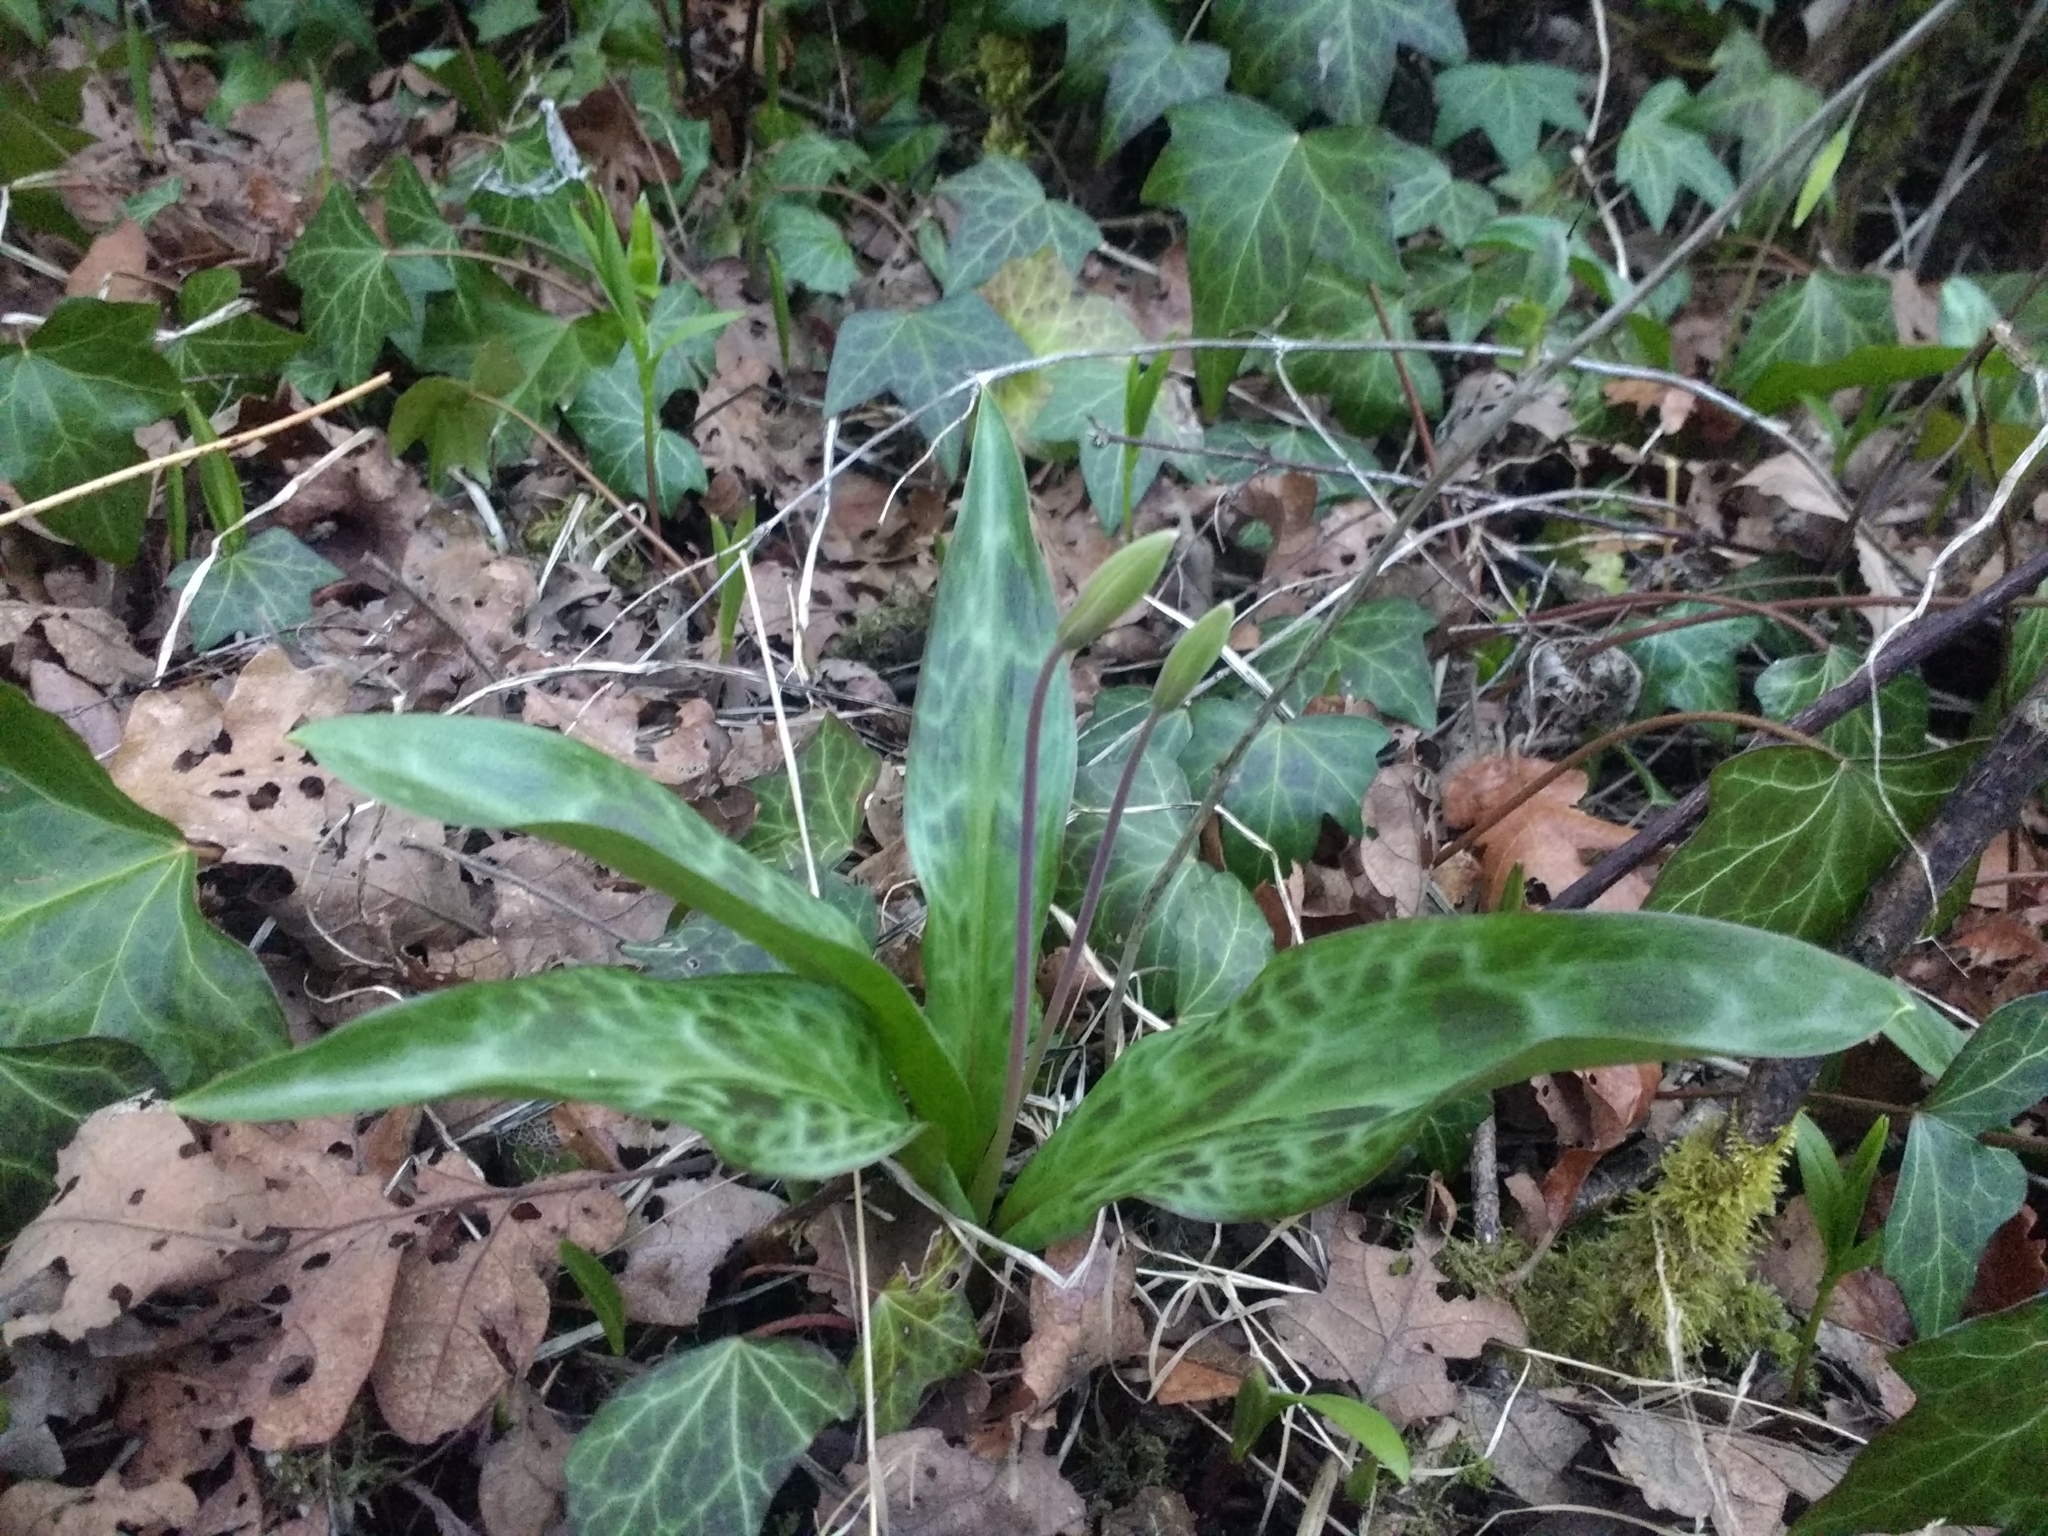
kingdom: Plantae
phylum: Tracheophyta
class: Liliopsida
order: Liliales
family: Liliaceae
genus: Erythronium
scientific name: Erythronium oregonum
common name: Giant adder's-tongue
